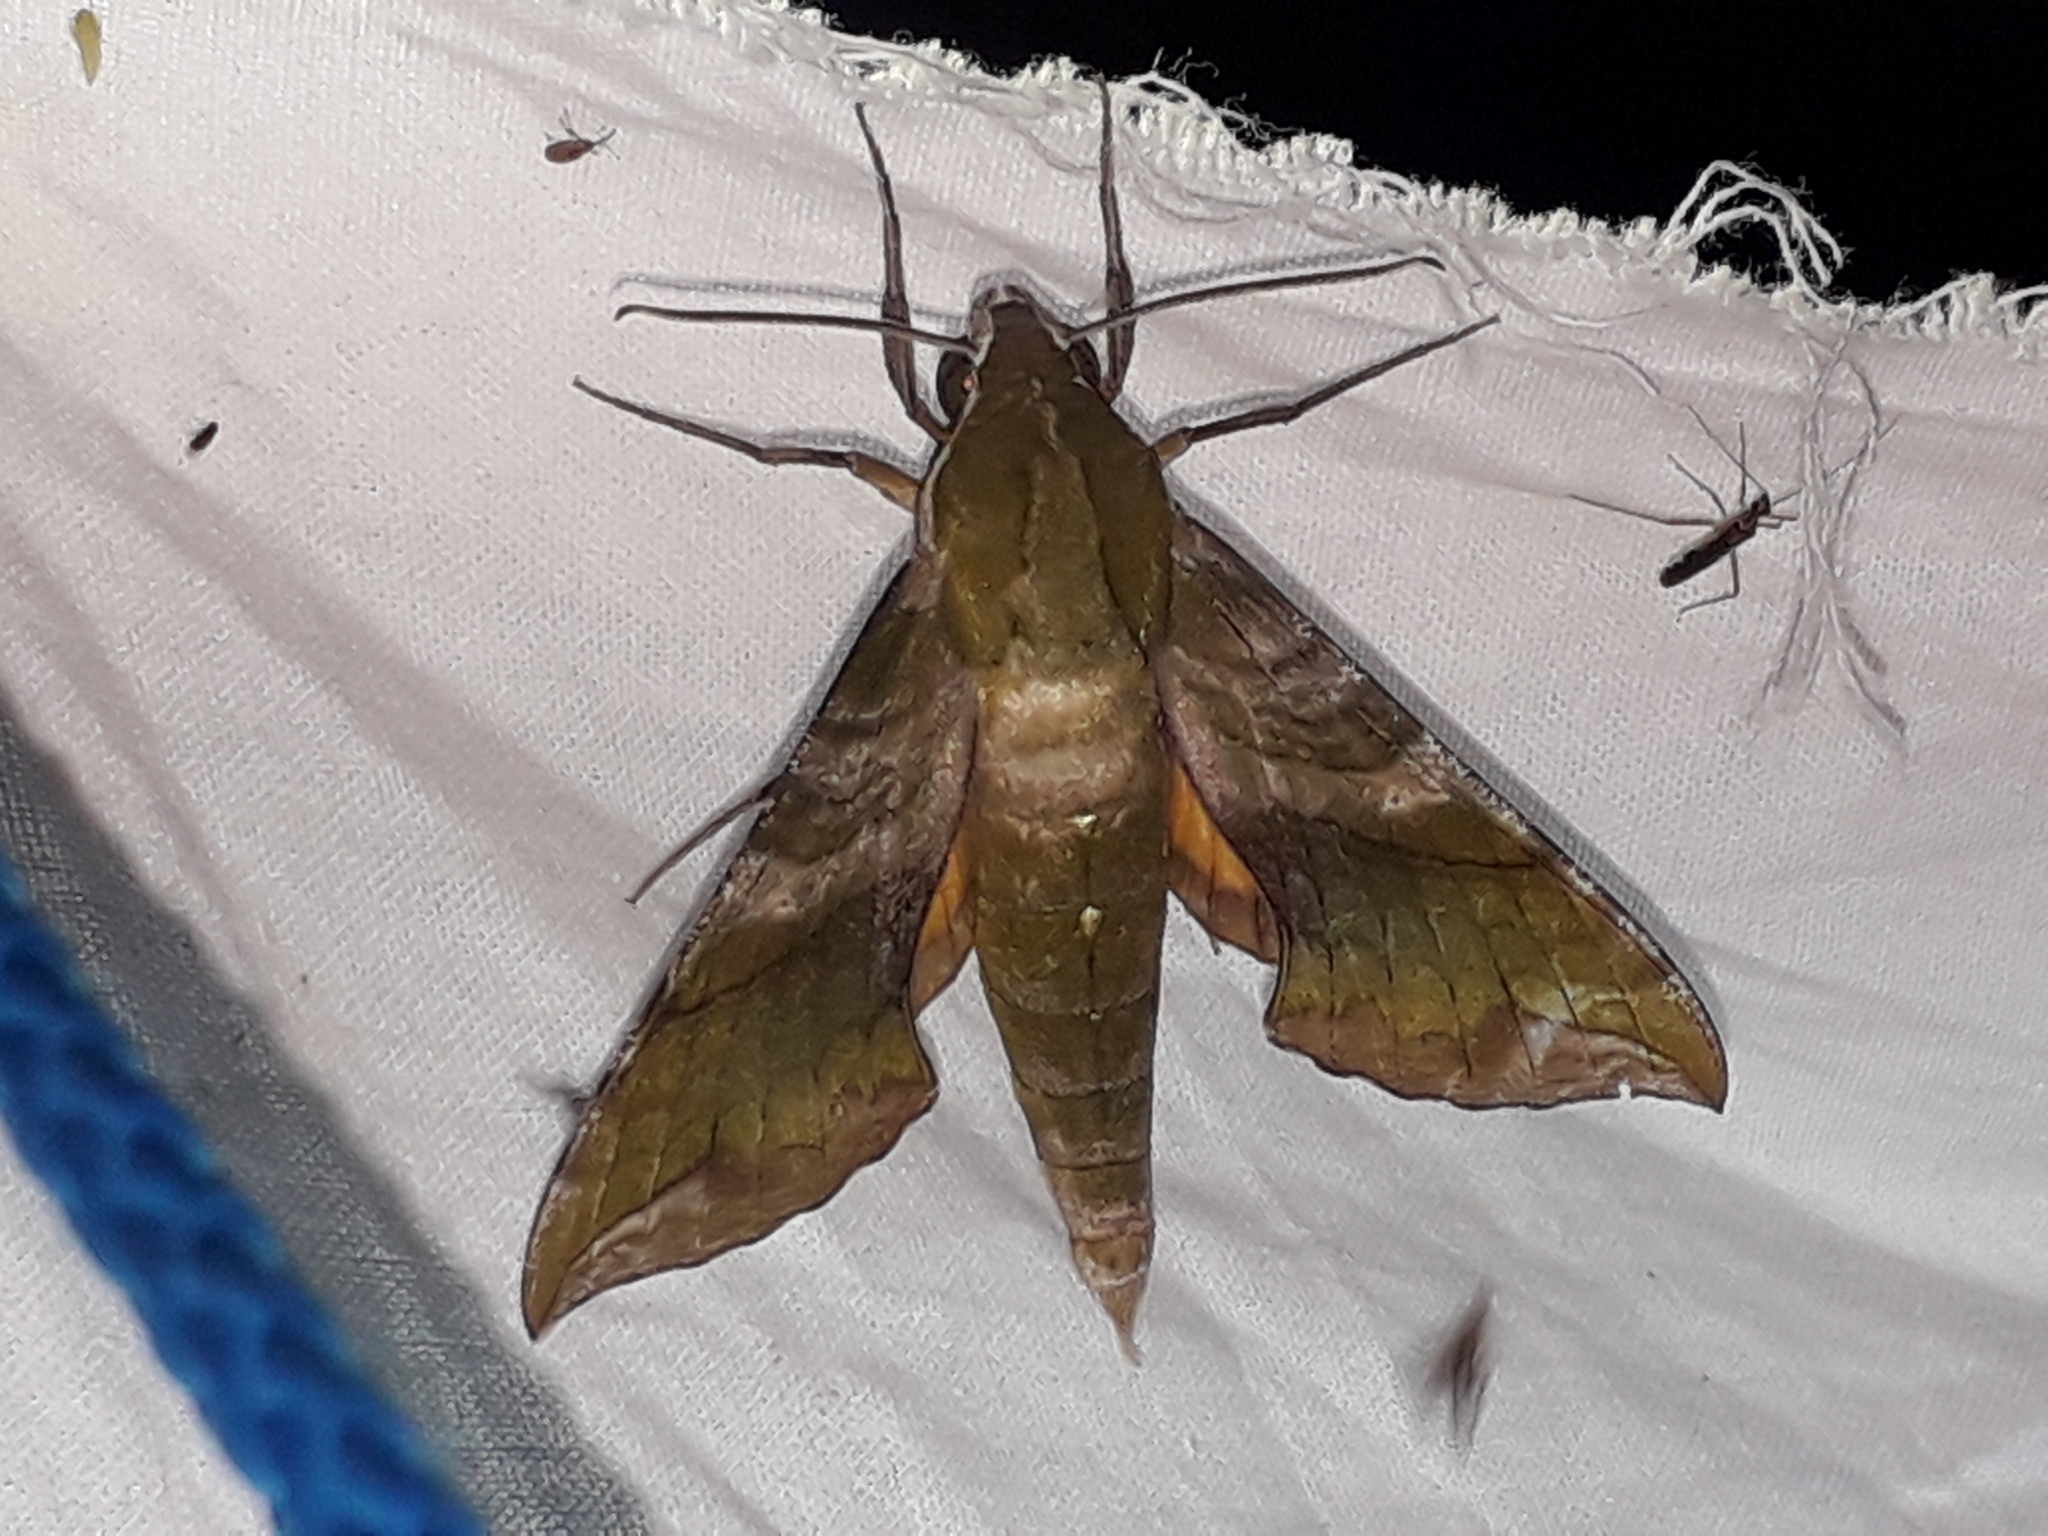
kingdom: Animalia
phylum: Arthropoda
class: Insecta
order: Lepidoptera
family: Sphingidae
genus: Xylophanes
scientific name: Xylophanes pluto
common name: Pluto sphinx
